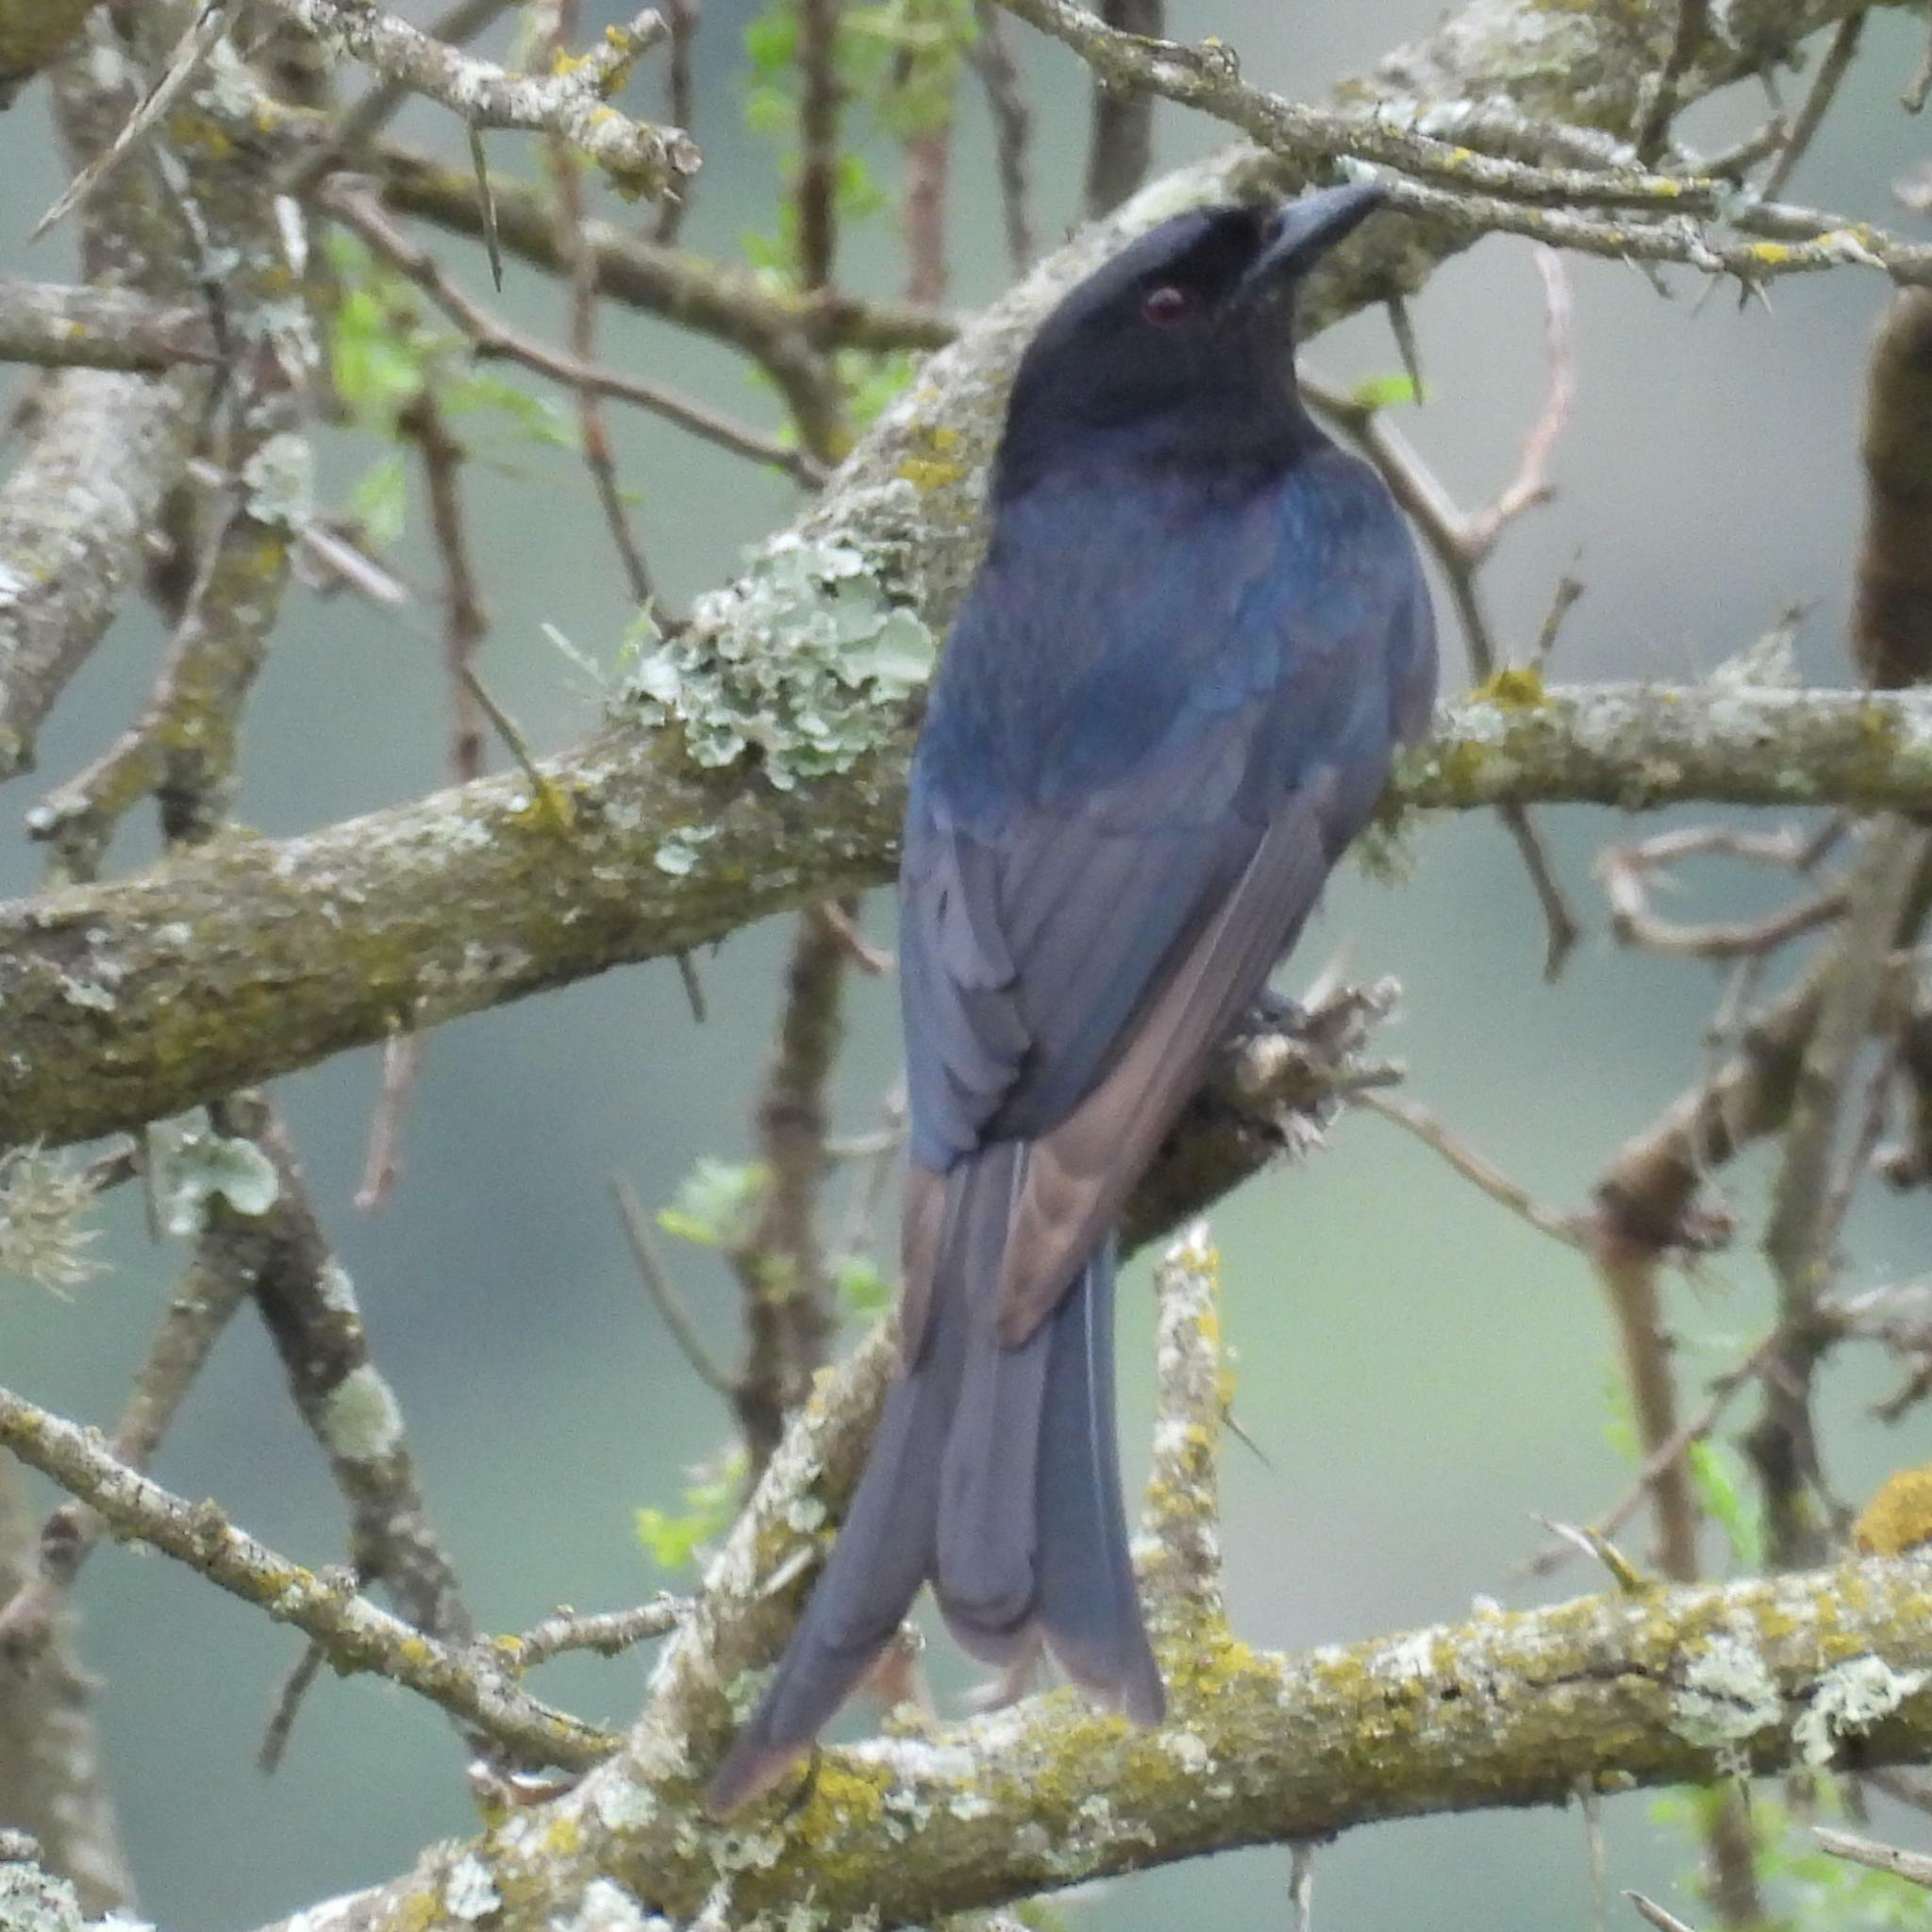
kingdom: Animalia
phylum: Chordata
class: Aves
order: Passeriformes
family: Dicruridae
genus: Dicrurus
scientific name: Dicrurus adsimilis
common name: Fork-tailed drongo
